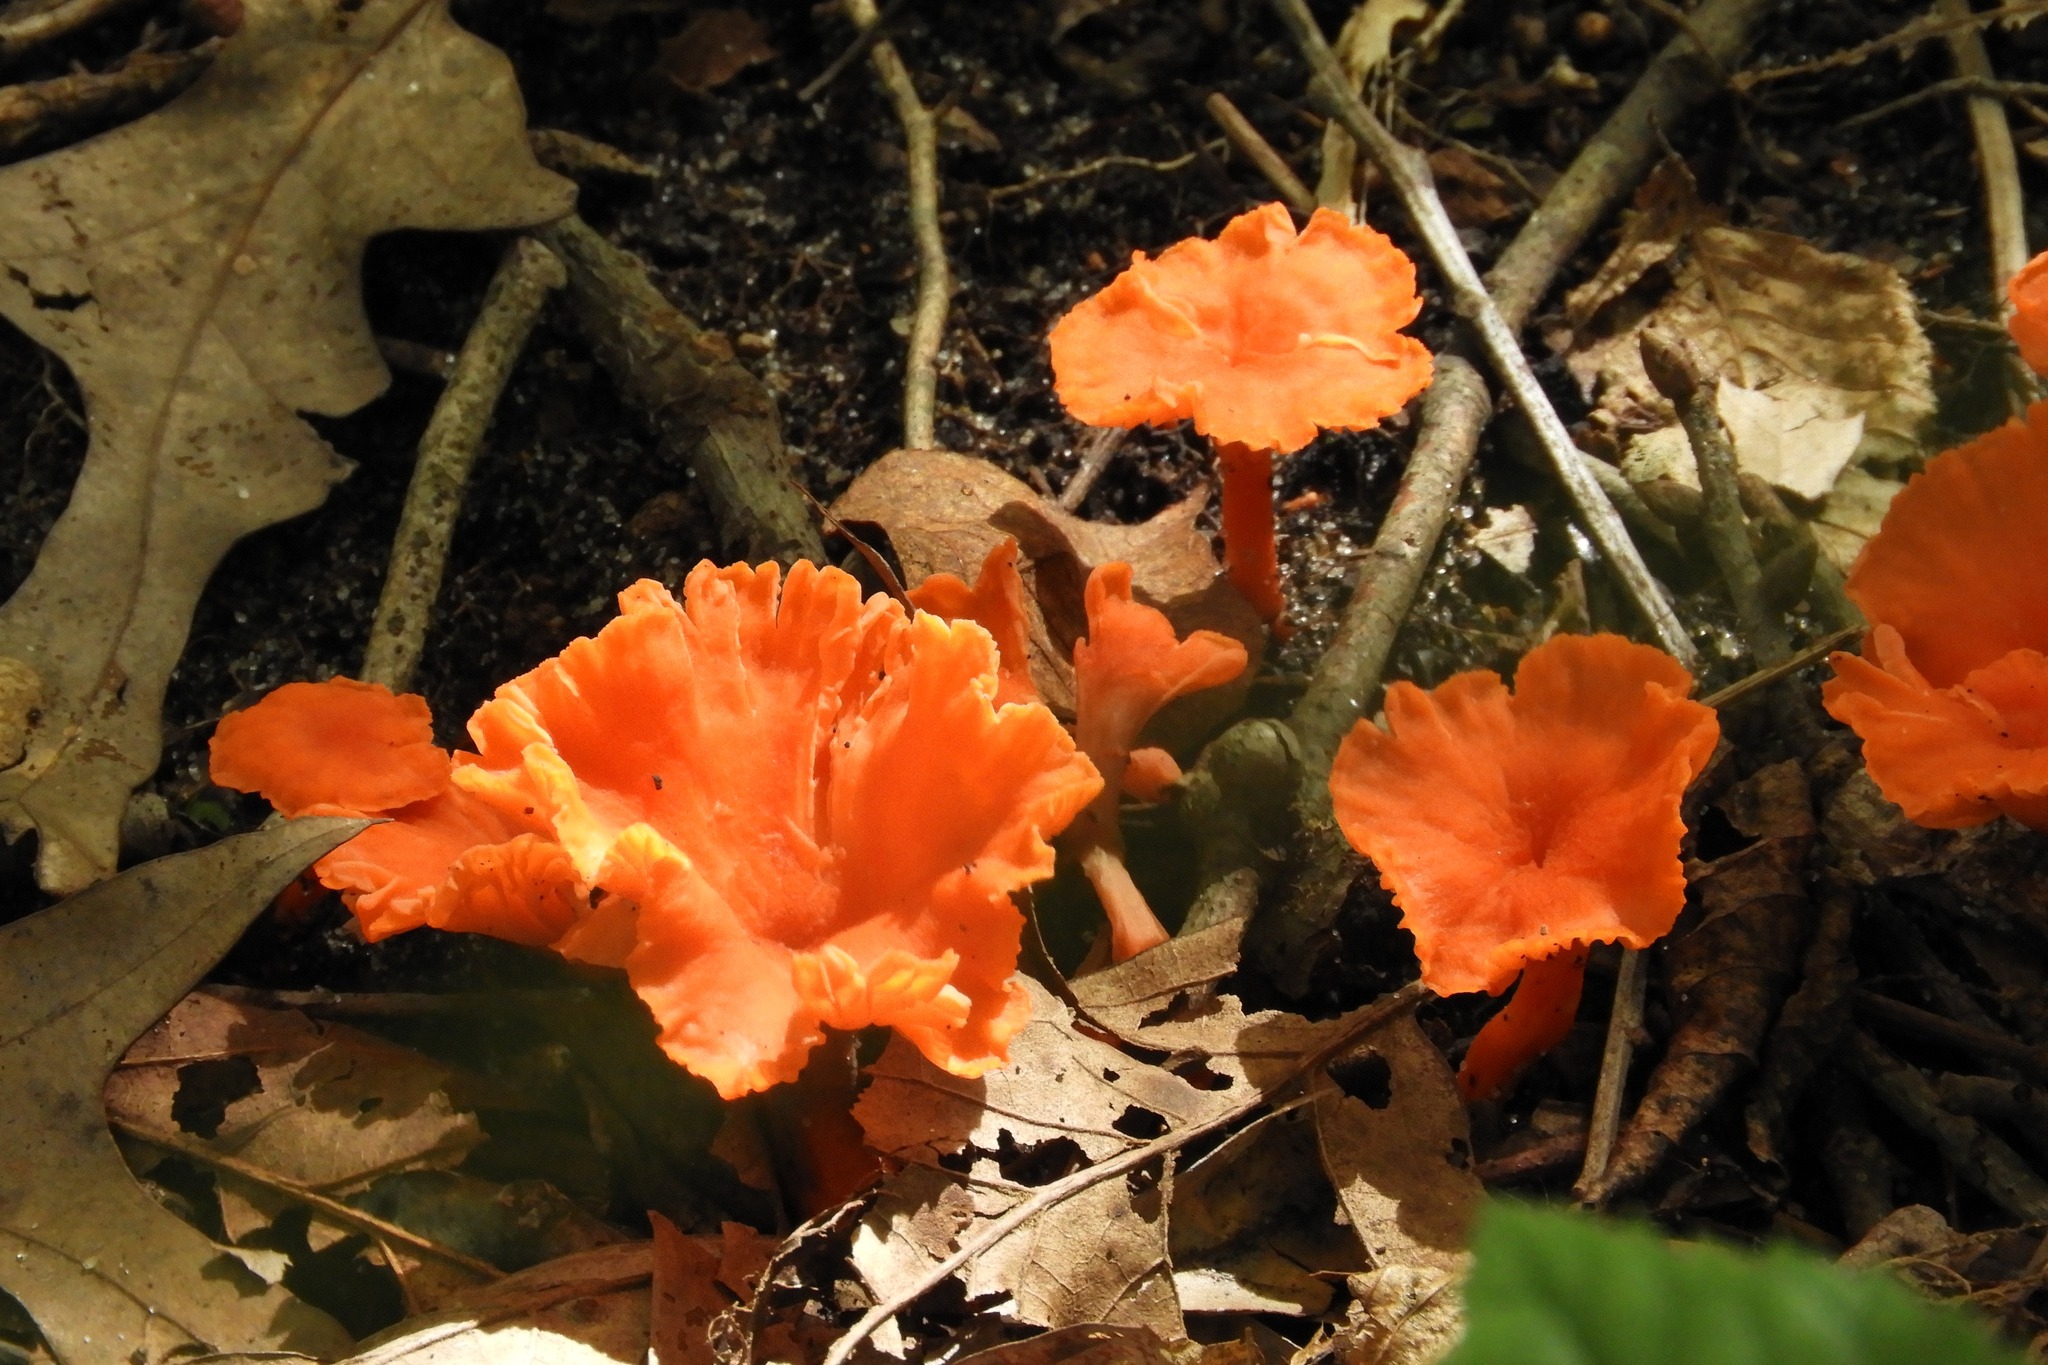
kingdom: Fungi
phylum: Basidiomycota
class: Agaricomycetes
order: Cantharellales
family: Hydnaceae
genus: Cantharellus
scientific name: Cantharellus cinnabarinus
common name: Cinnabar chanterelle
